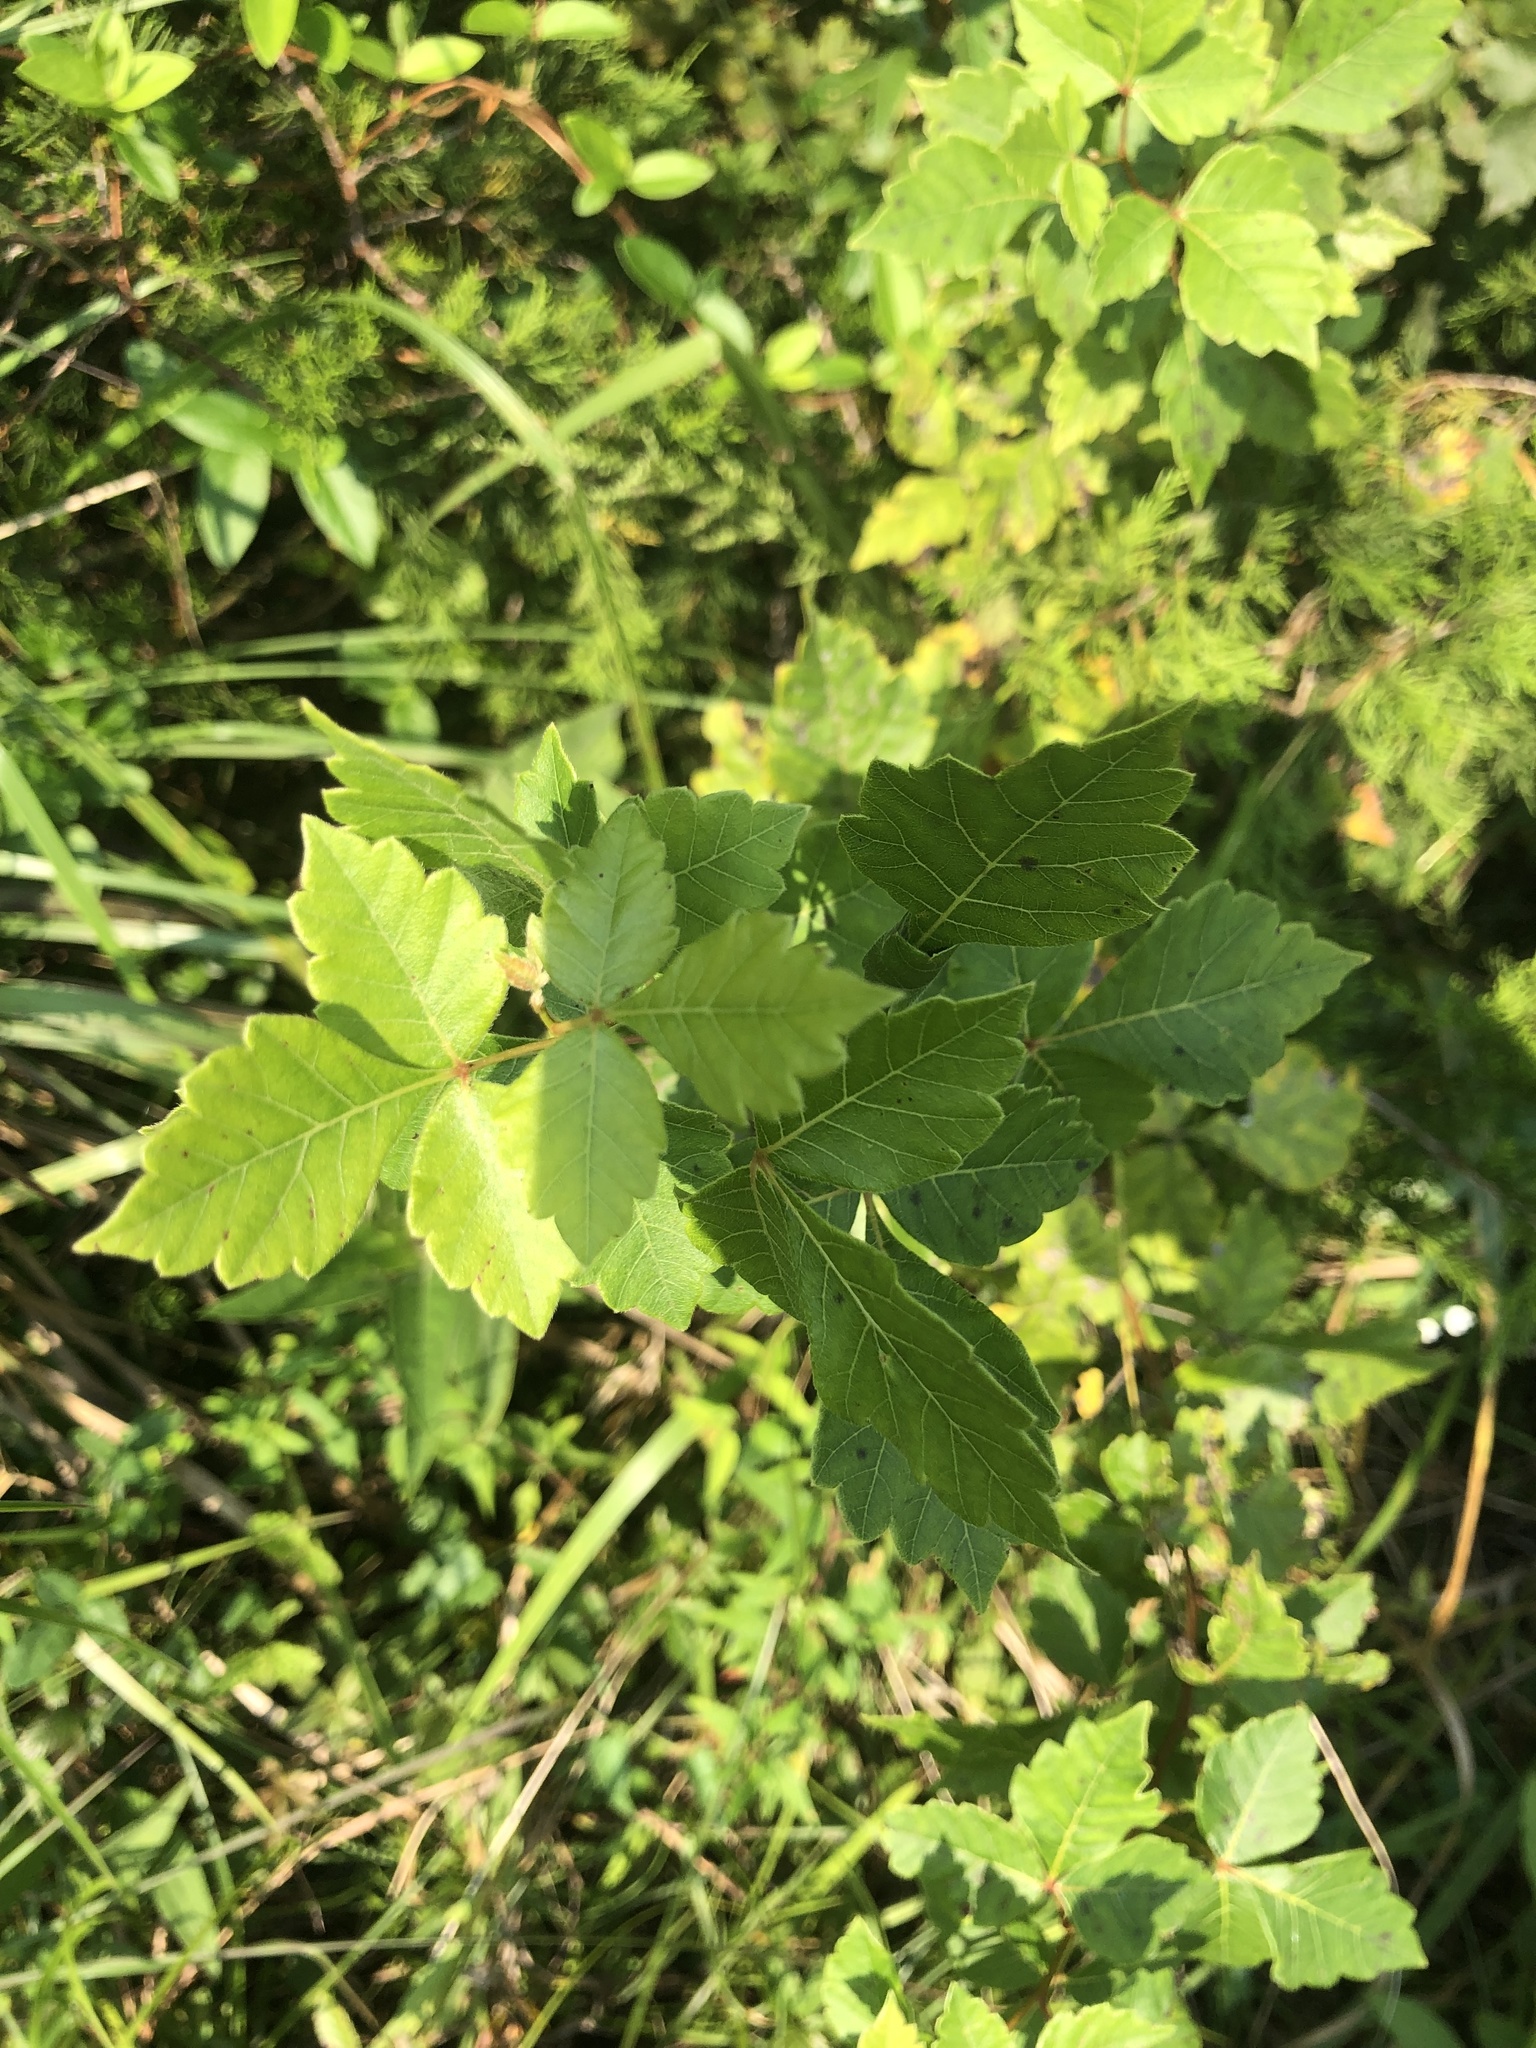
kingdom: Plantae
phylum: Tracheophyta
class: Magnoliopsida
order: Sapindales
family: Anacardiaceae
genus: Rhus
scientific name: Rhus aromatica
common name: Aromatic sumac
